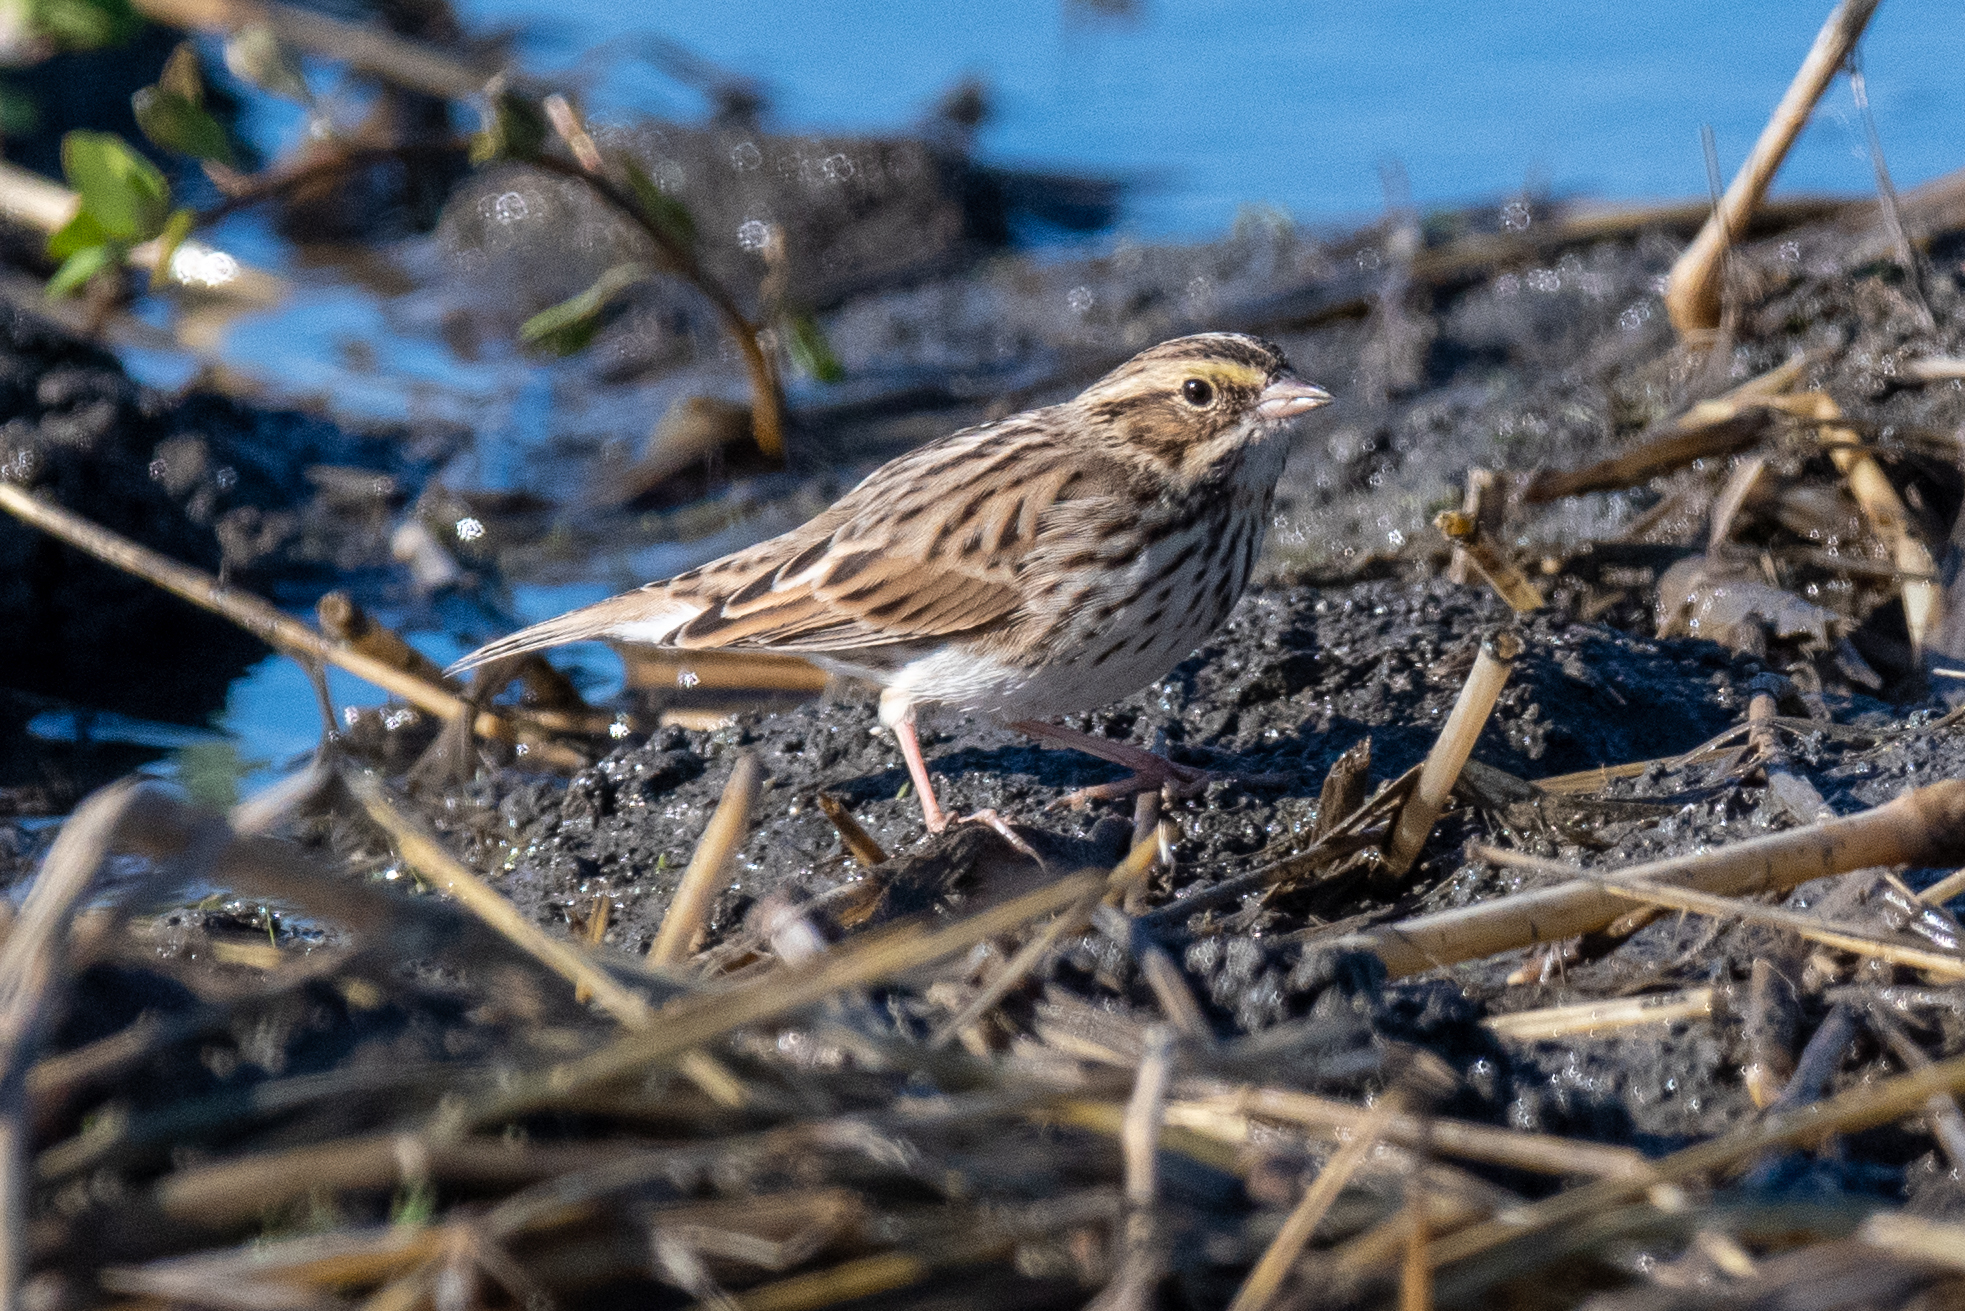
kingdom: Animalia
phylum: Chordata
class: Aves
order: Passeriformes
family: Passerellidae
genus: Passerculus
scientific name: Passerculus sandwichensis
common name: Savannah sparrow
